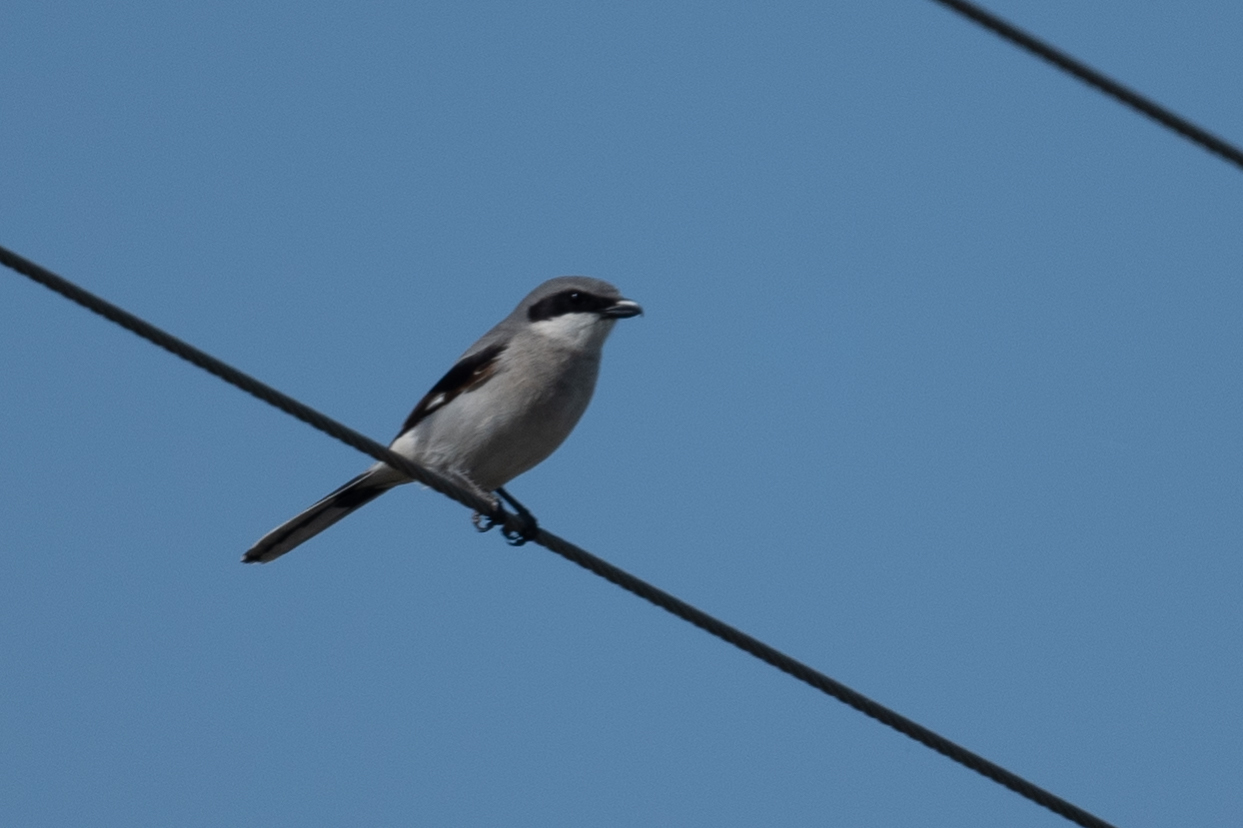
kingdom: Animalia
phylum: Chordata
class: Aves
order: Passeriformes
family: Laniidae
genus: Lanius
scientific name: Lanius ludovicianus
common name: Loggerhead shrike
